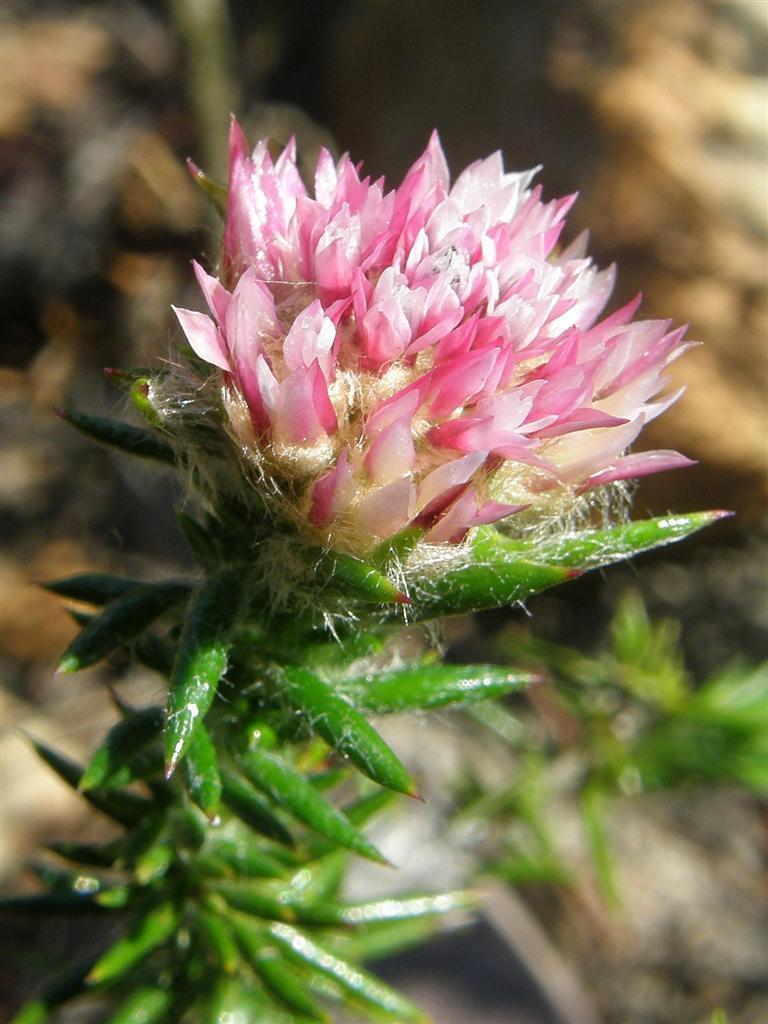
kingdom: Plantae
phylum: Tracheophyta
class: Magnoliopsida
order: Asterales
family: Asteraceae
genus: Metalasia
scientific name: Metalasia erubescens
